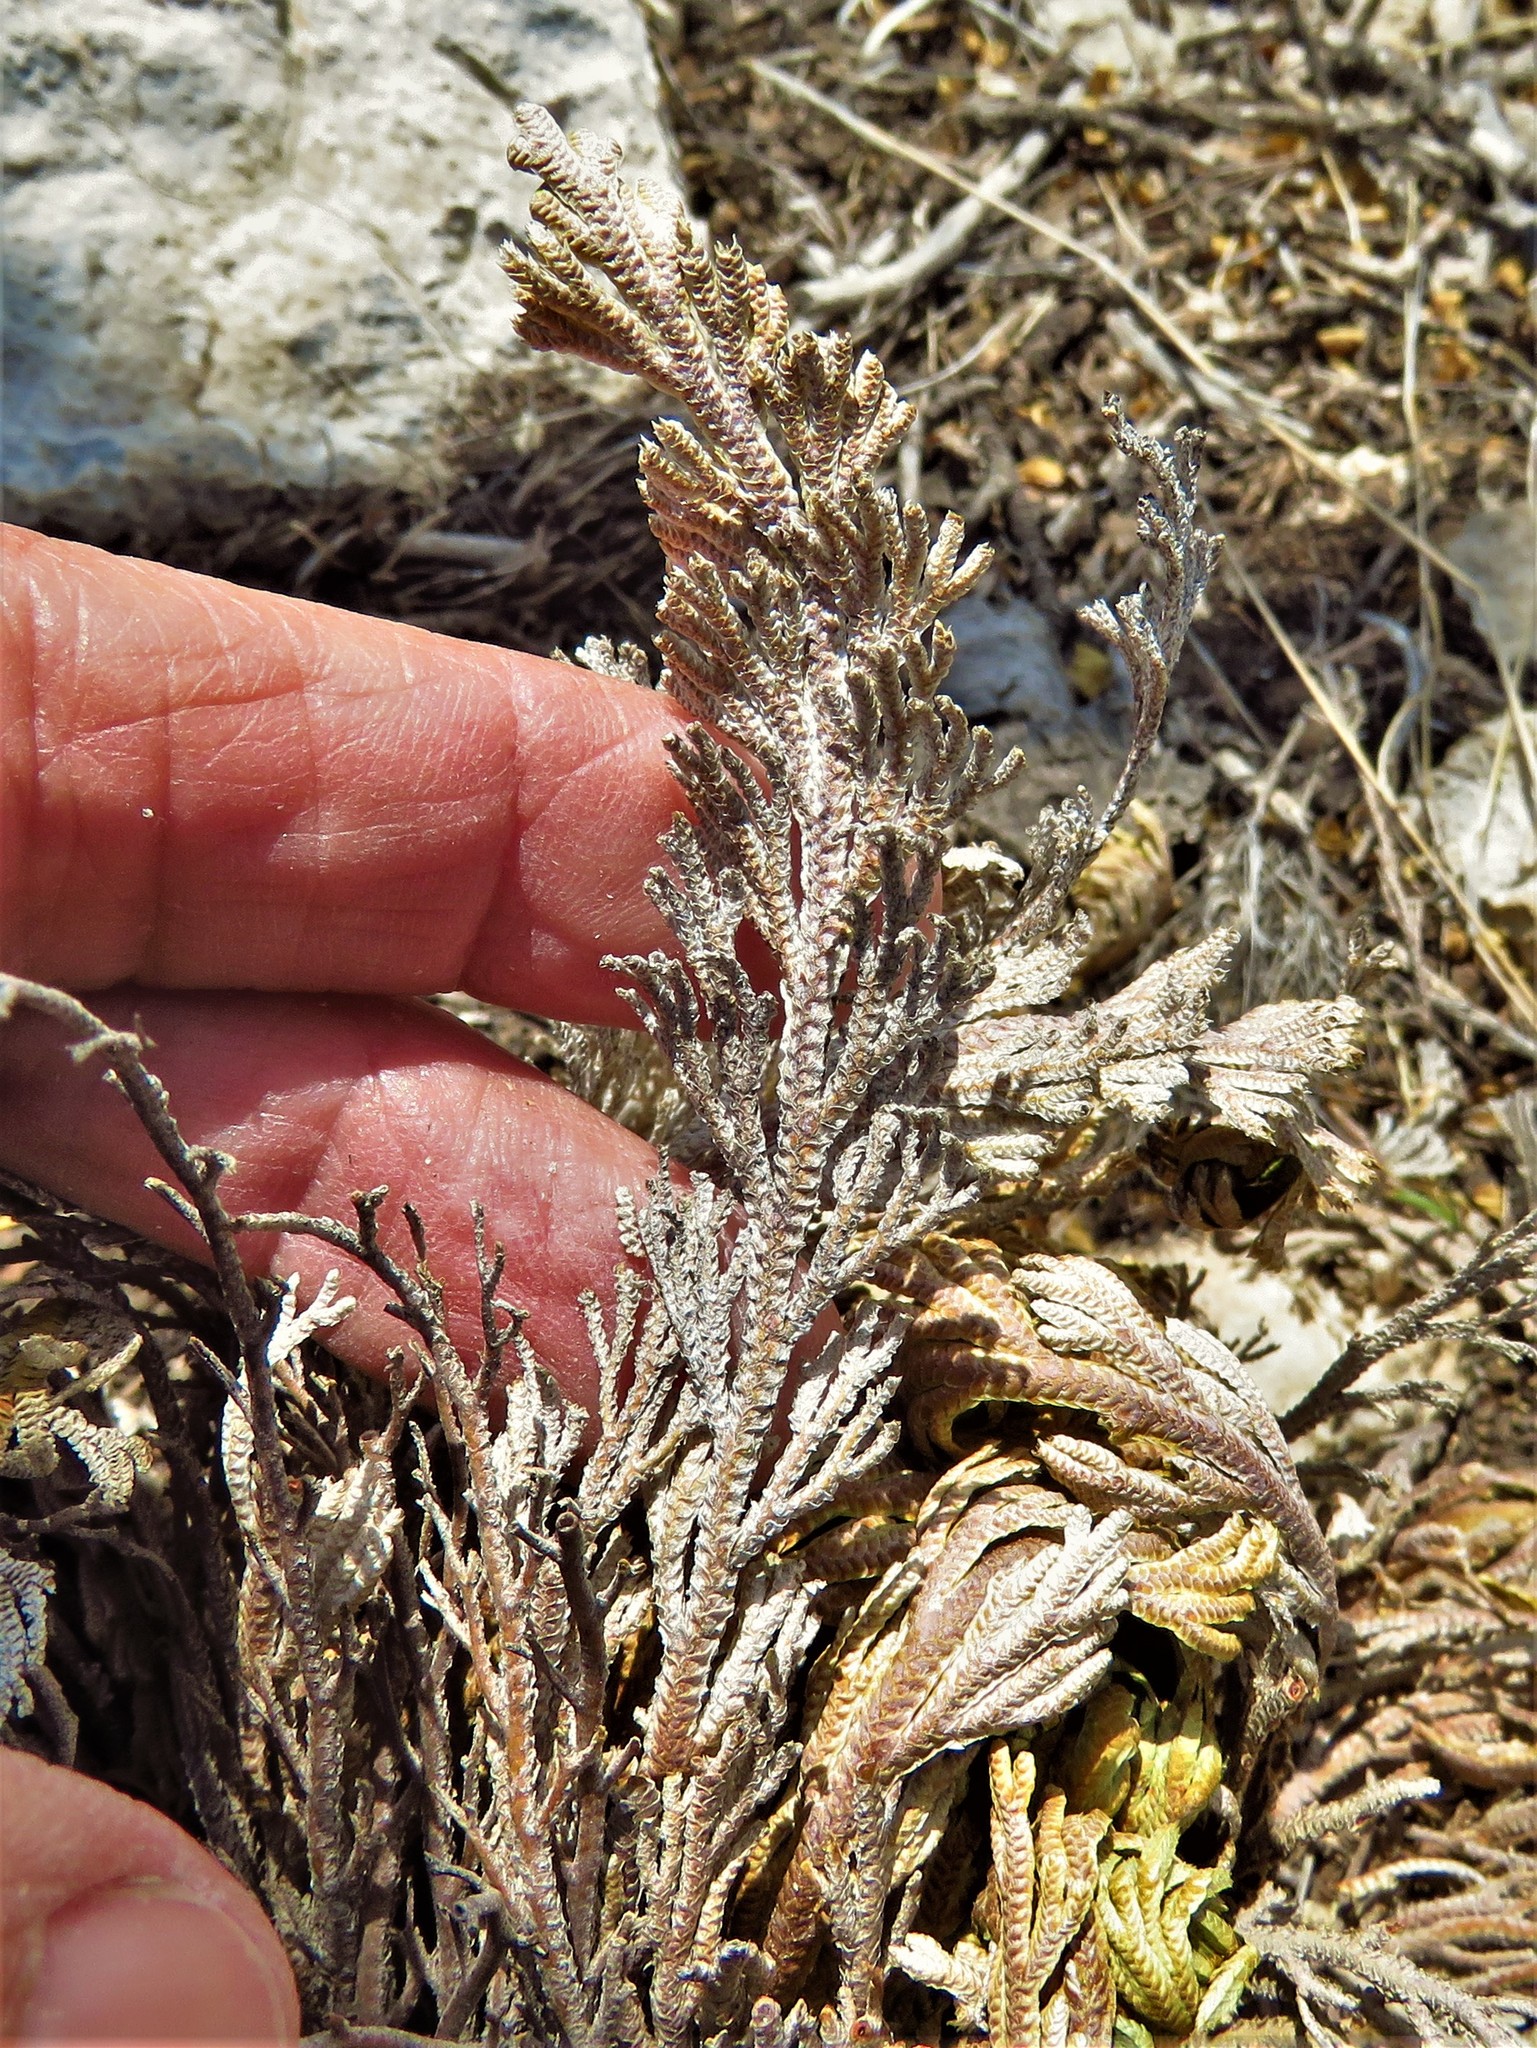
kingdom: Plantae
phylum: Tracheophyta
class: Lycopodiopsida
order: Selaginellales
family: Selaginellaceae
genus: Selaginella
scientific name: Selaginella lepidophylla
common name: Rose-of-jericho
